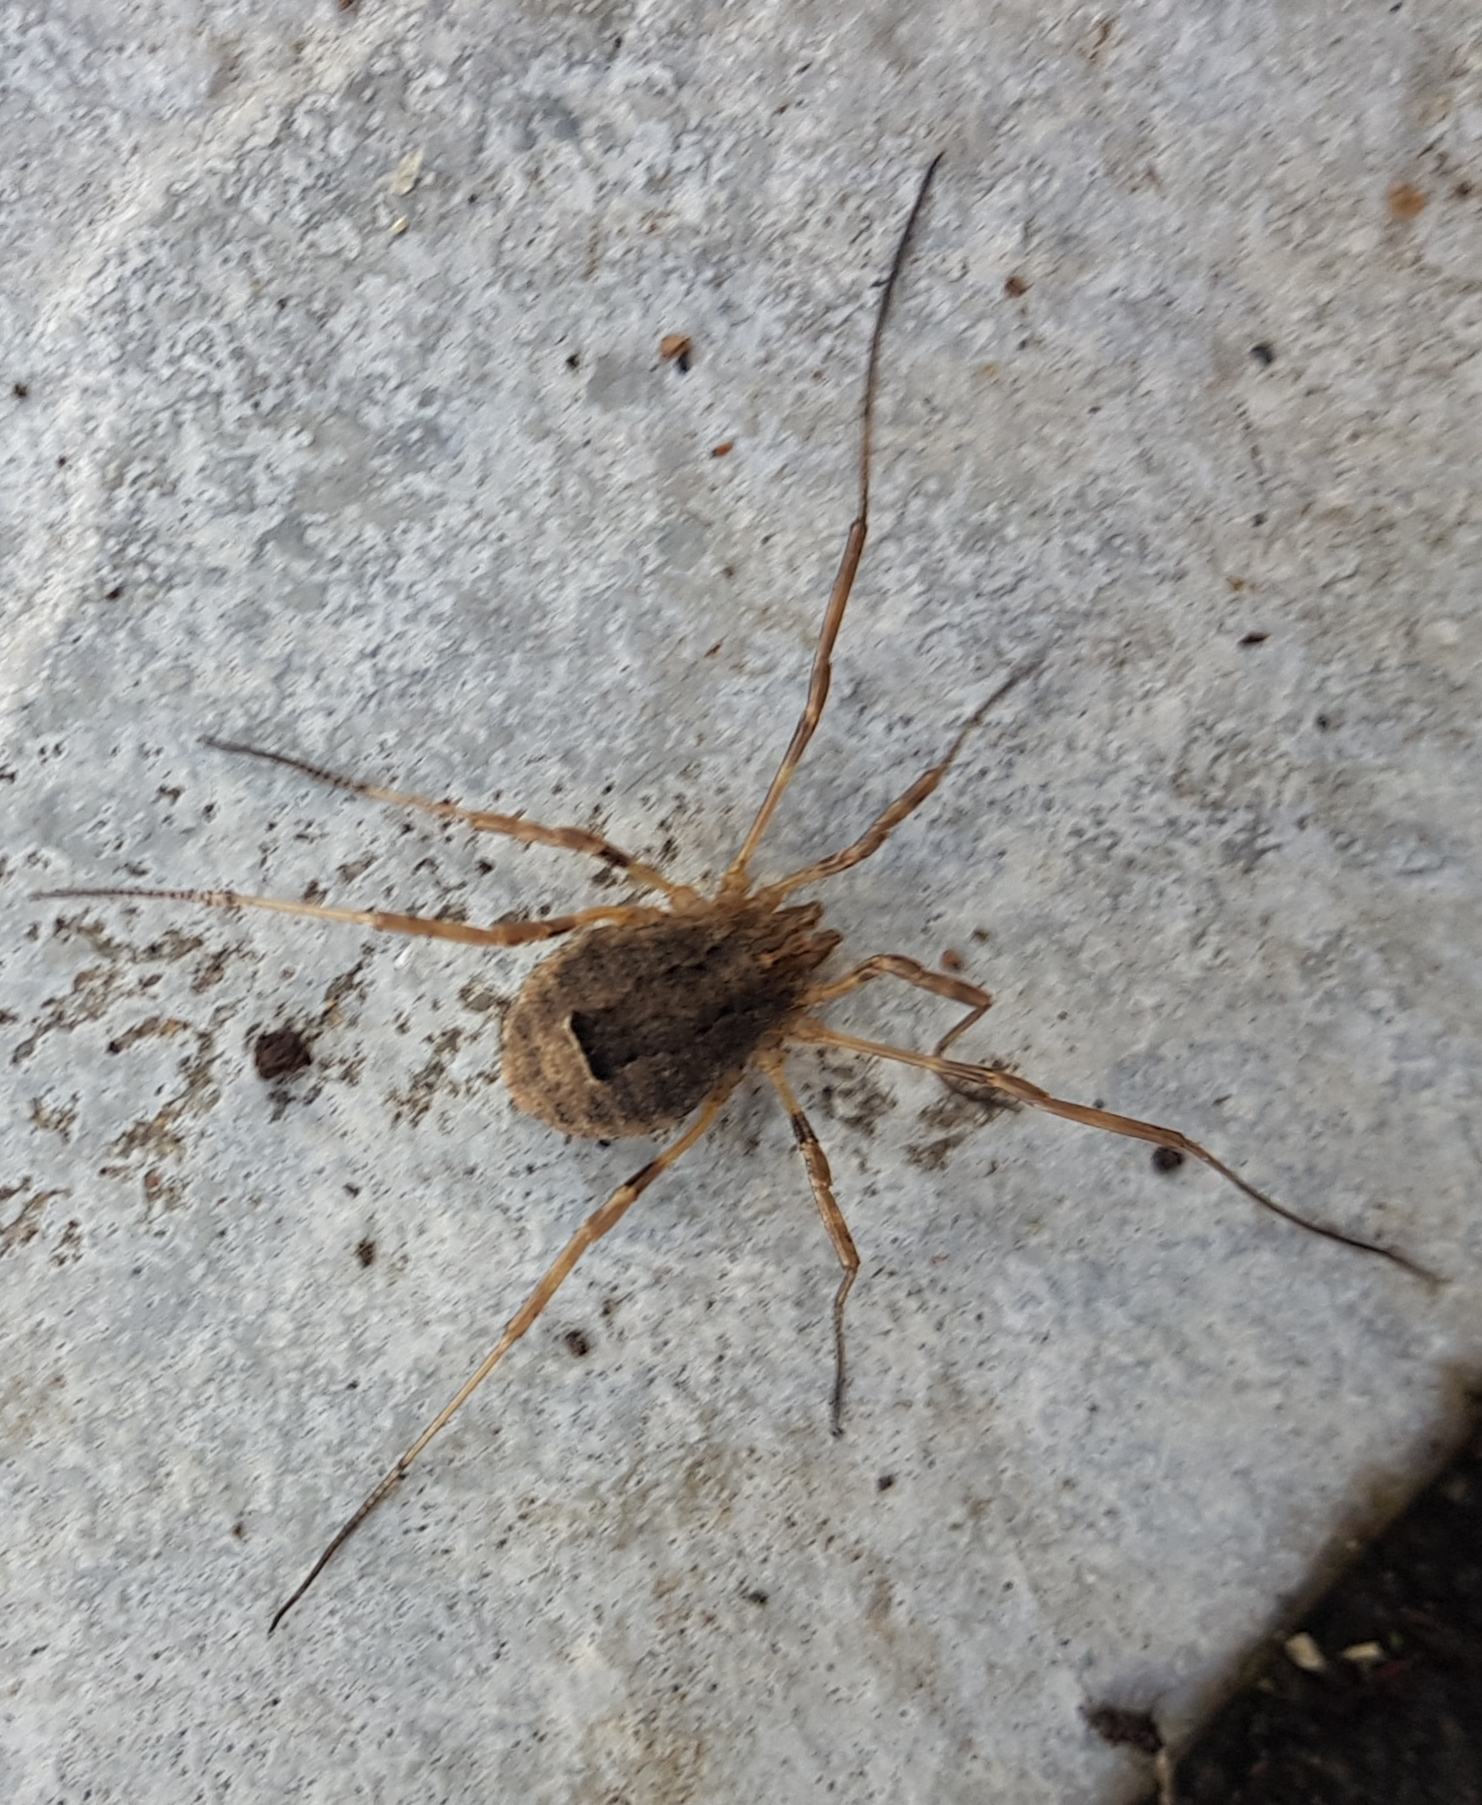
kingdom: Animalia
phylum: Arthropoda
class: Arachnida
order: Opiliones
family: Phalangiidae
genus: Odiellus
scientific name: Odiellus spinosus
